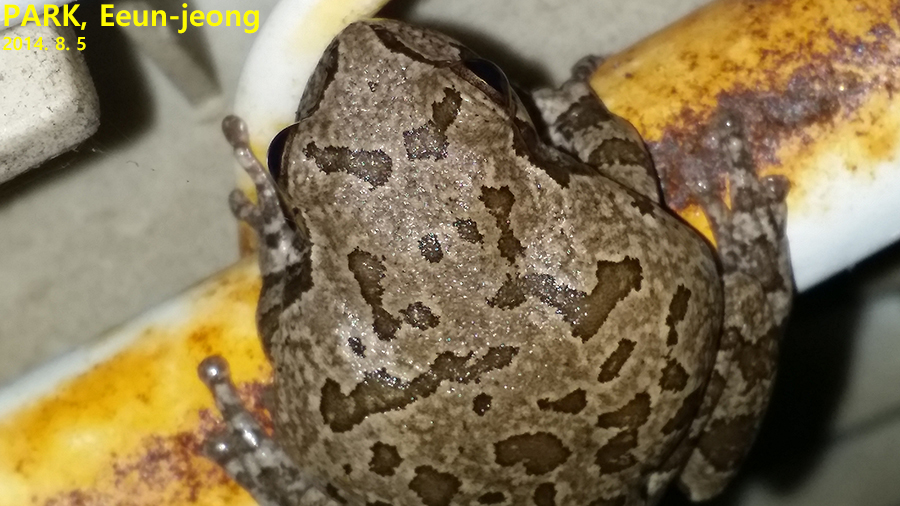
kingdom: Animalia
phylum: Chordata
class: Amphibia
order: Anura
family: Hylidae
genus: Dryophytes
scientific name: Dryophytes japonicus
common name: Japanese treefrog
